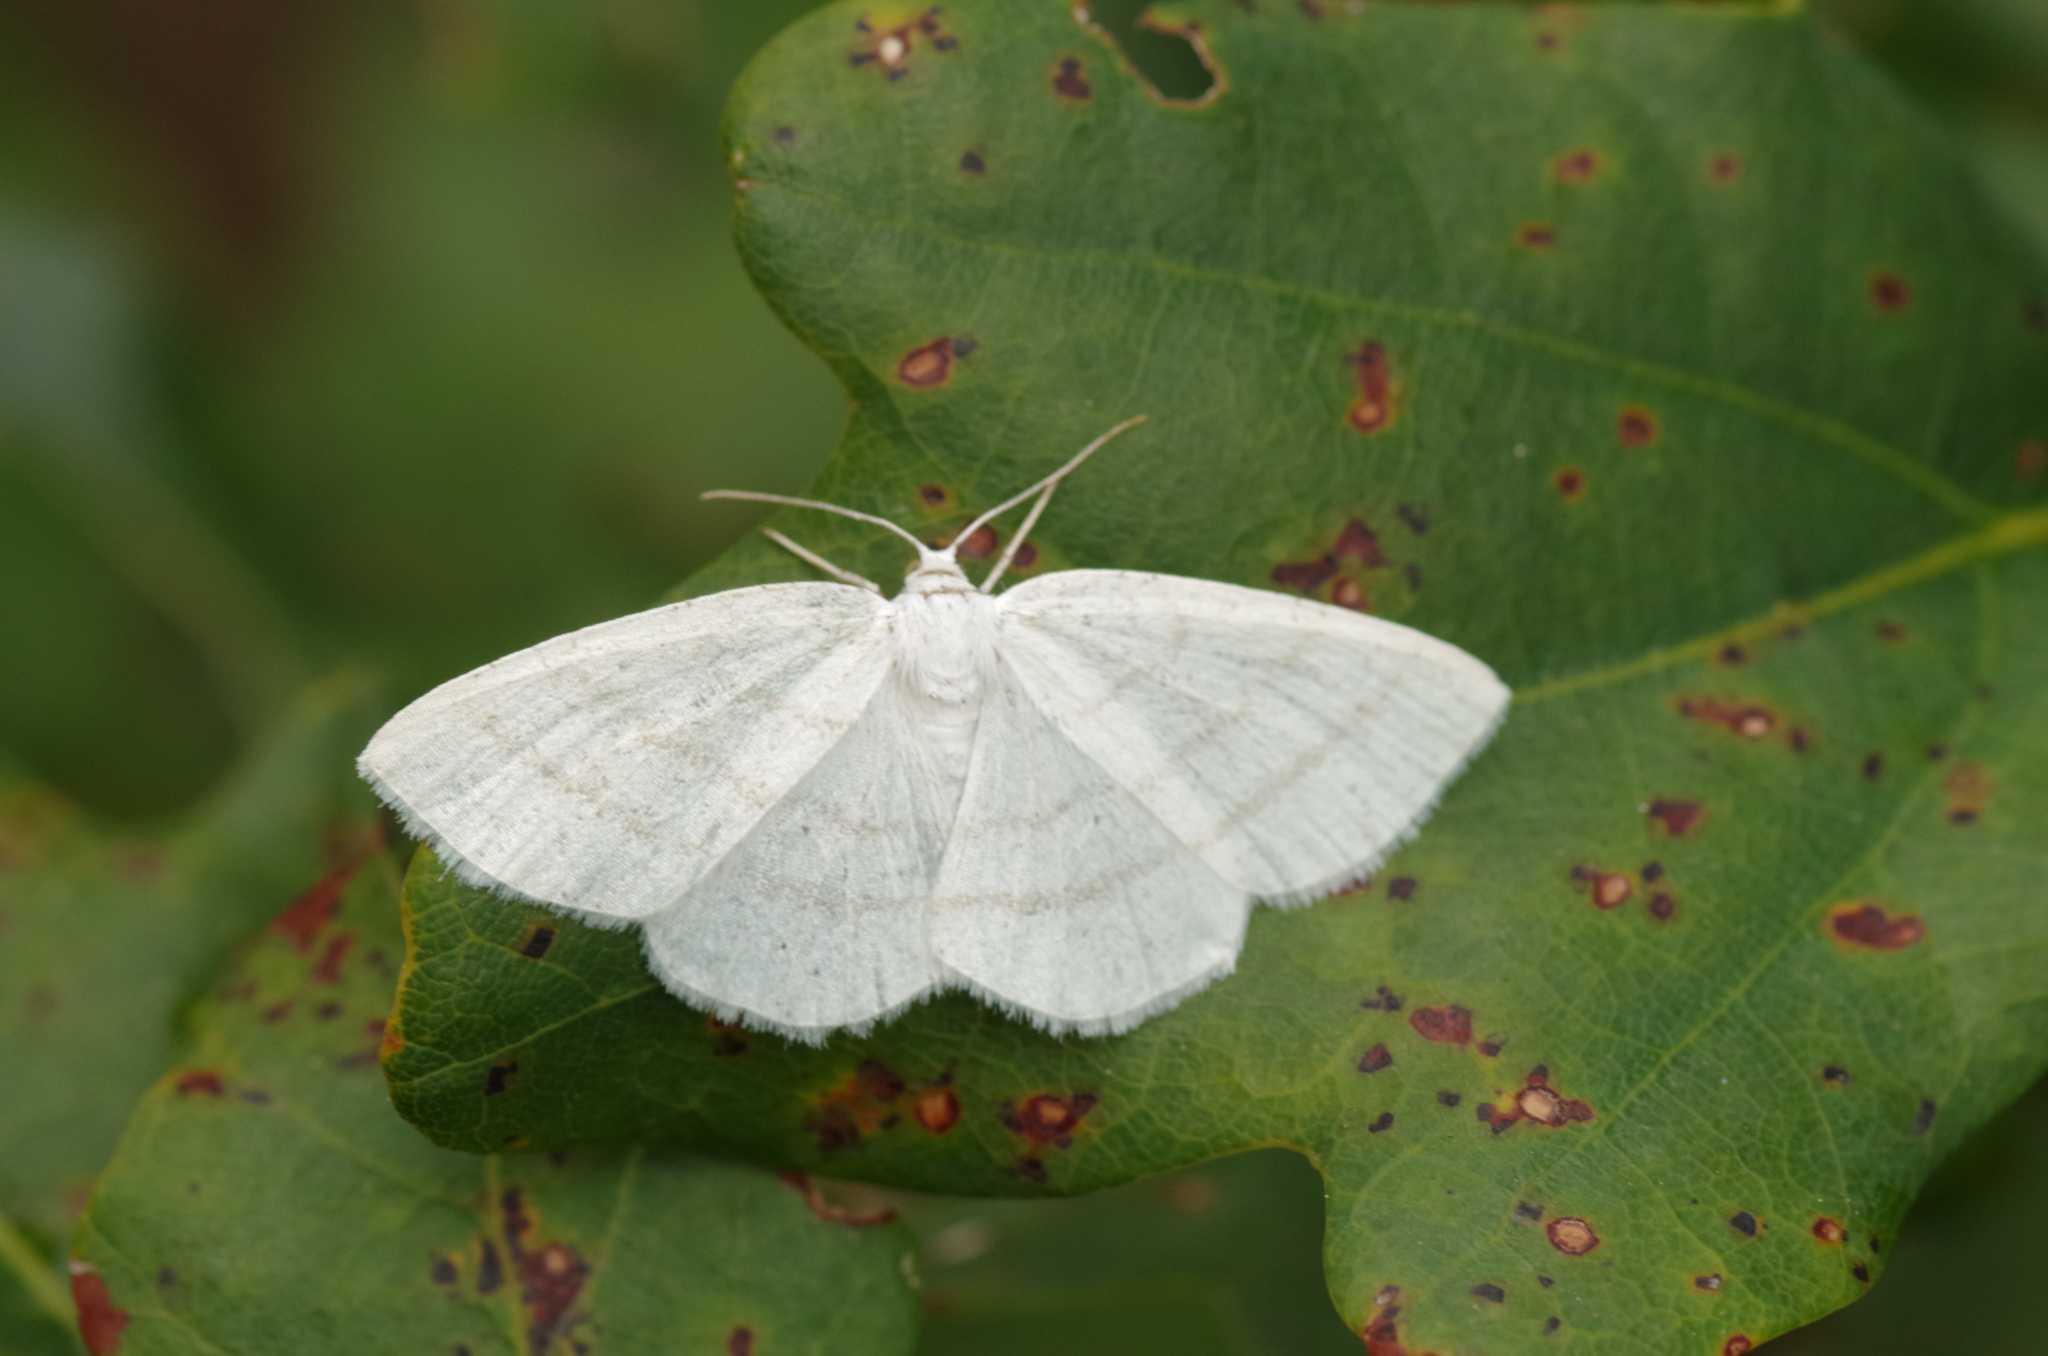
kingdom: Animalia
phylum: Arthropoda
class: Insecta
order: Lepidoptera
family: Geometridae
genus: Cabera
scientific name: Cabera pusaria
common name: Common white wave
